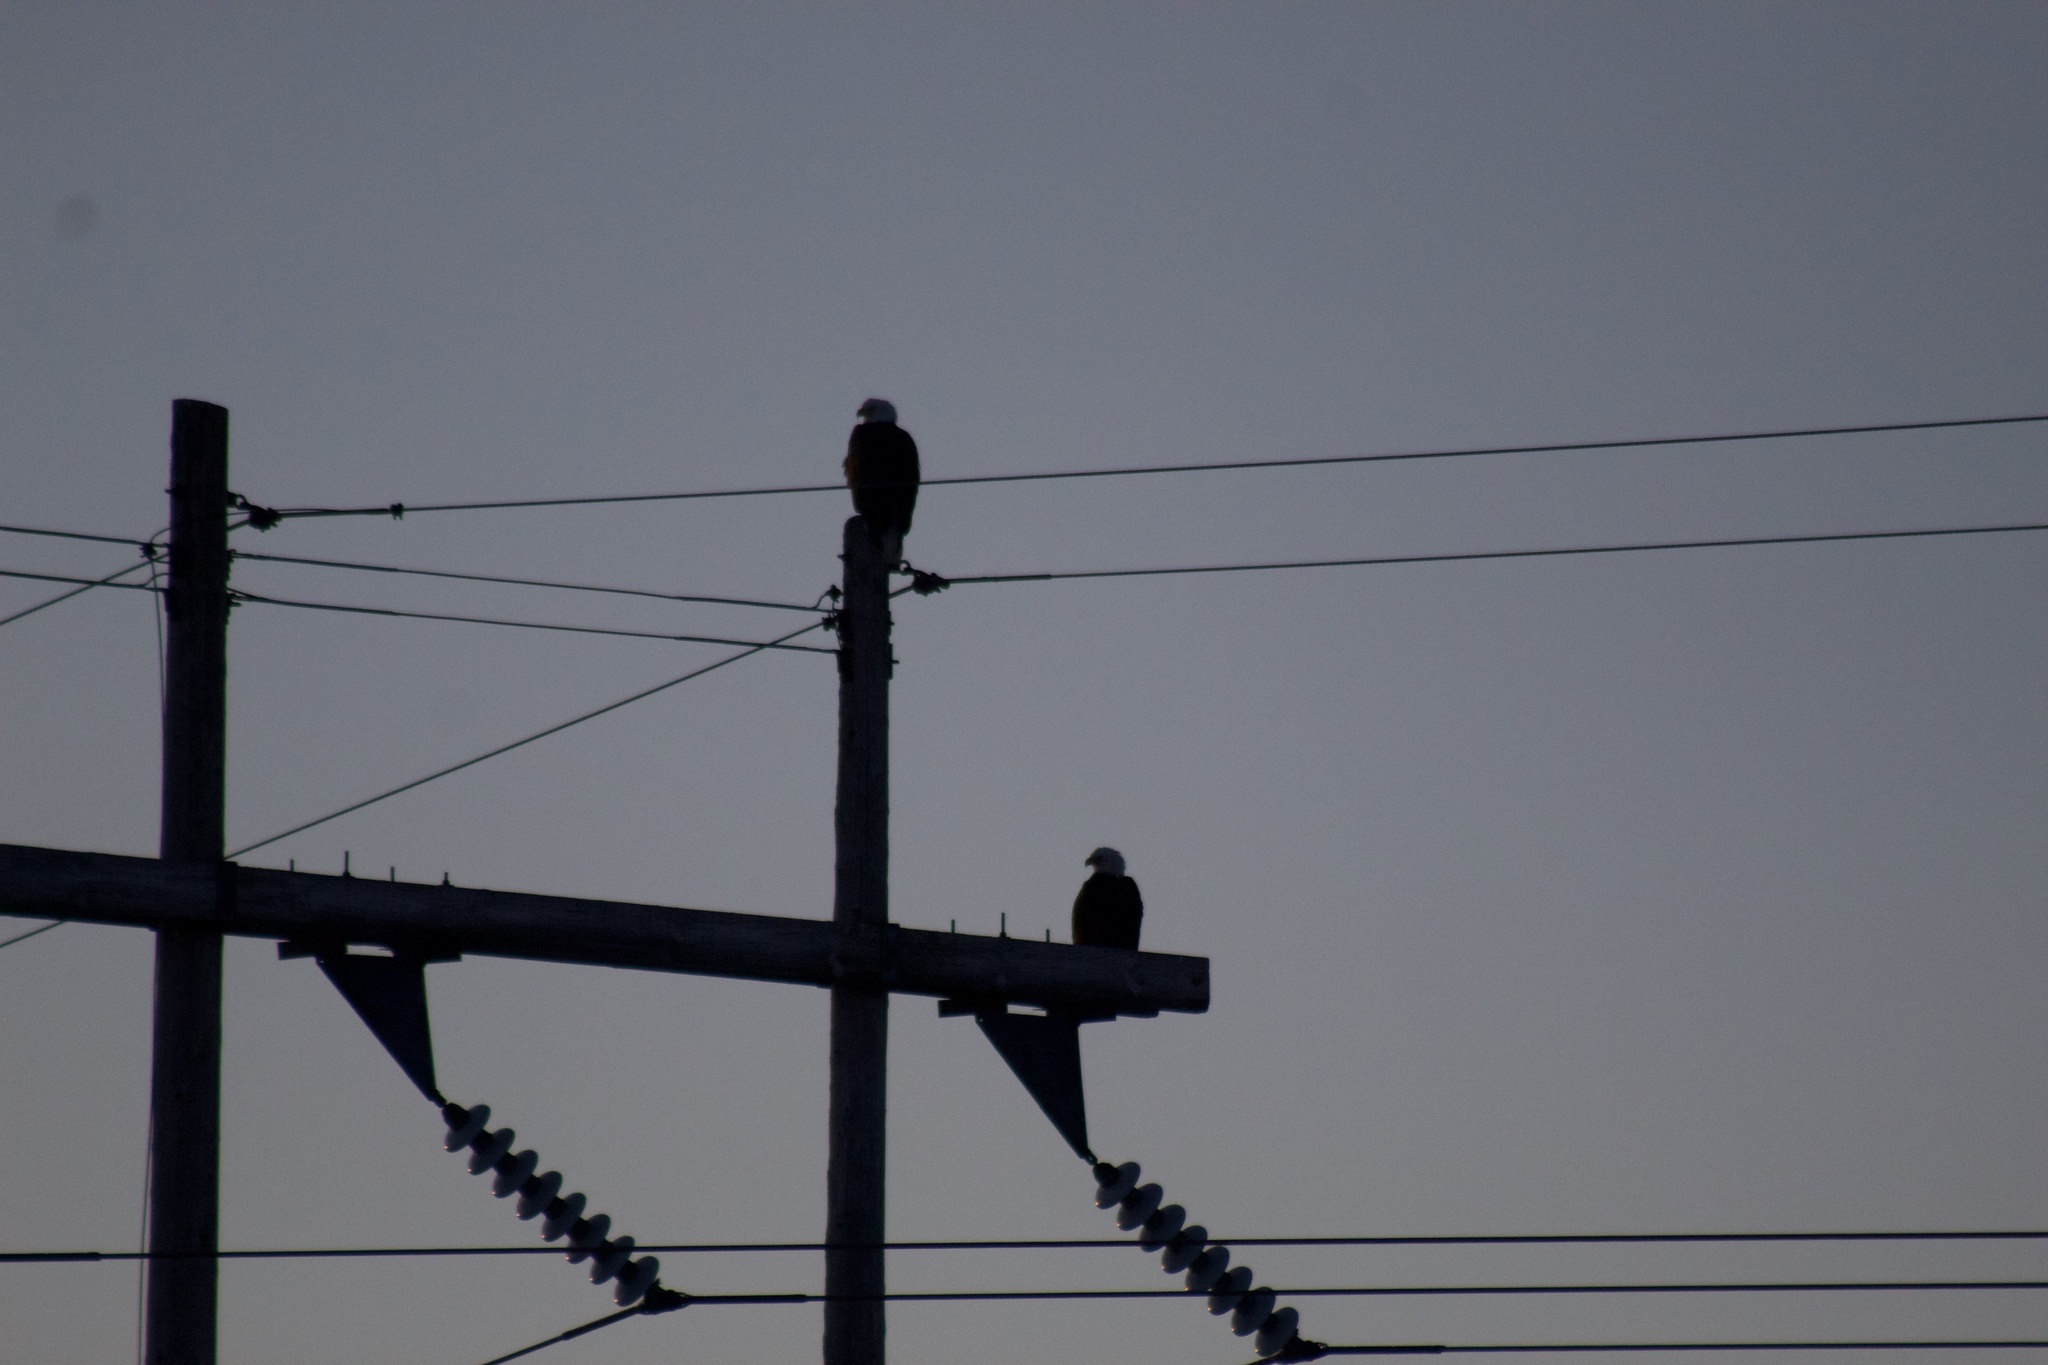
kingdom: Animalia
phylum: Chordata
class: Aves
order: Accipitriformes
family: Accipitridae
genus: Haliaeetus
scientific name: Haliaeetus leucocephalus
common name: Bald eagle
